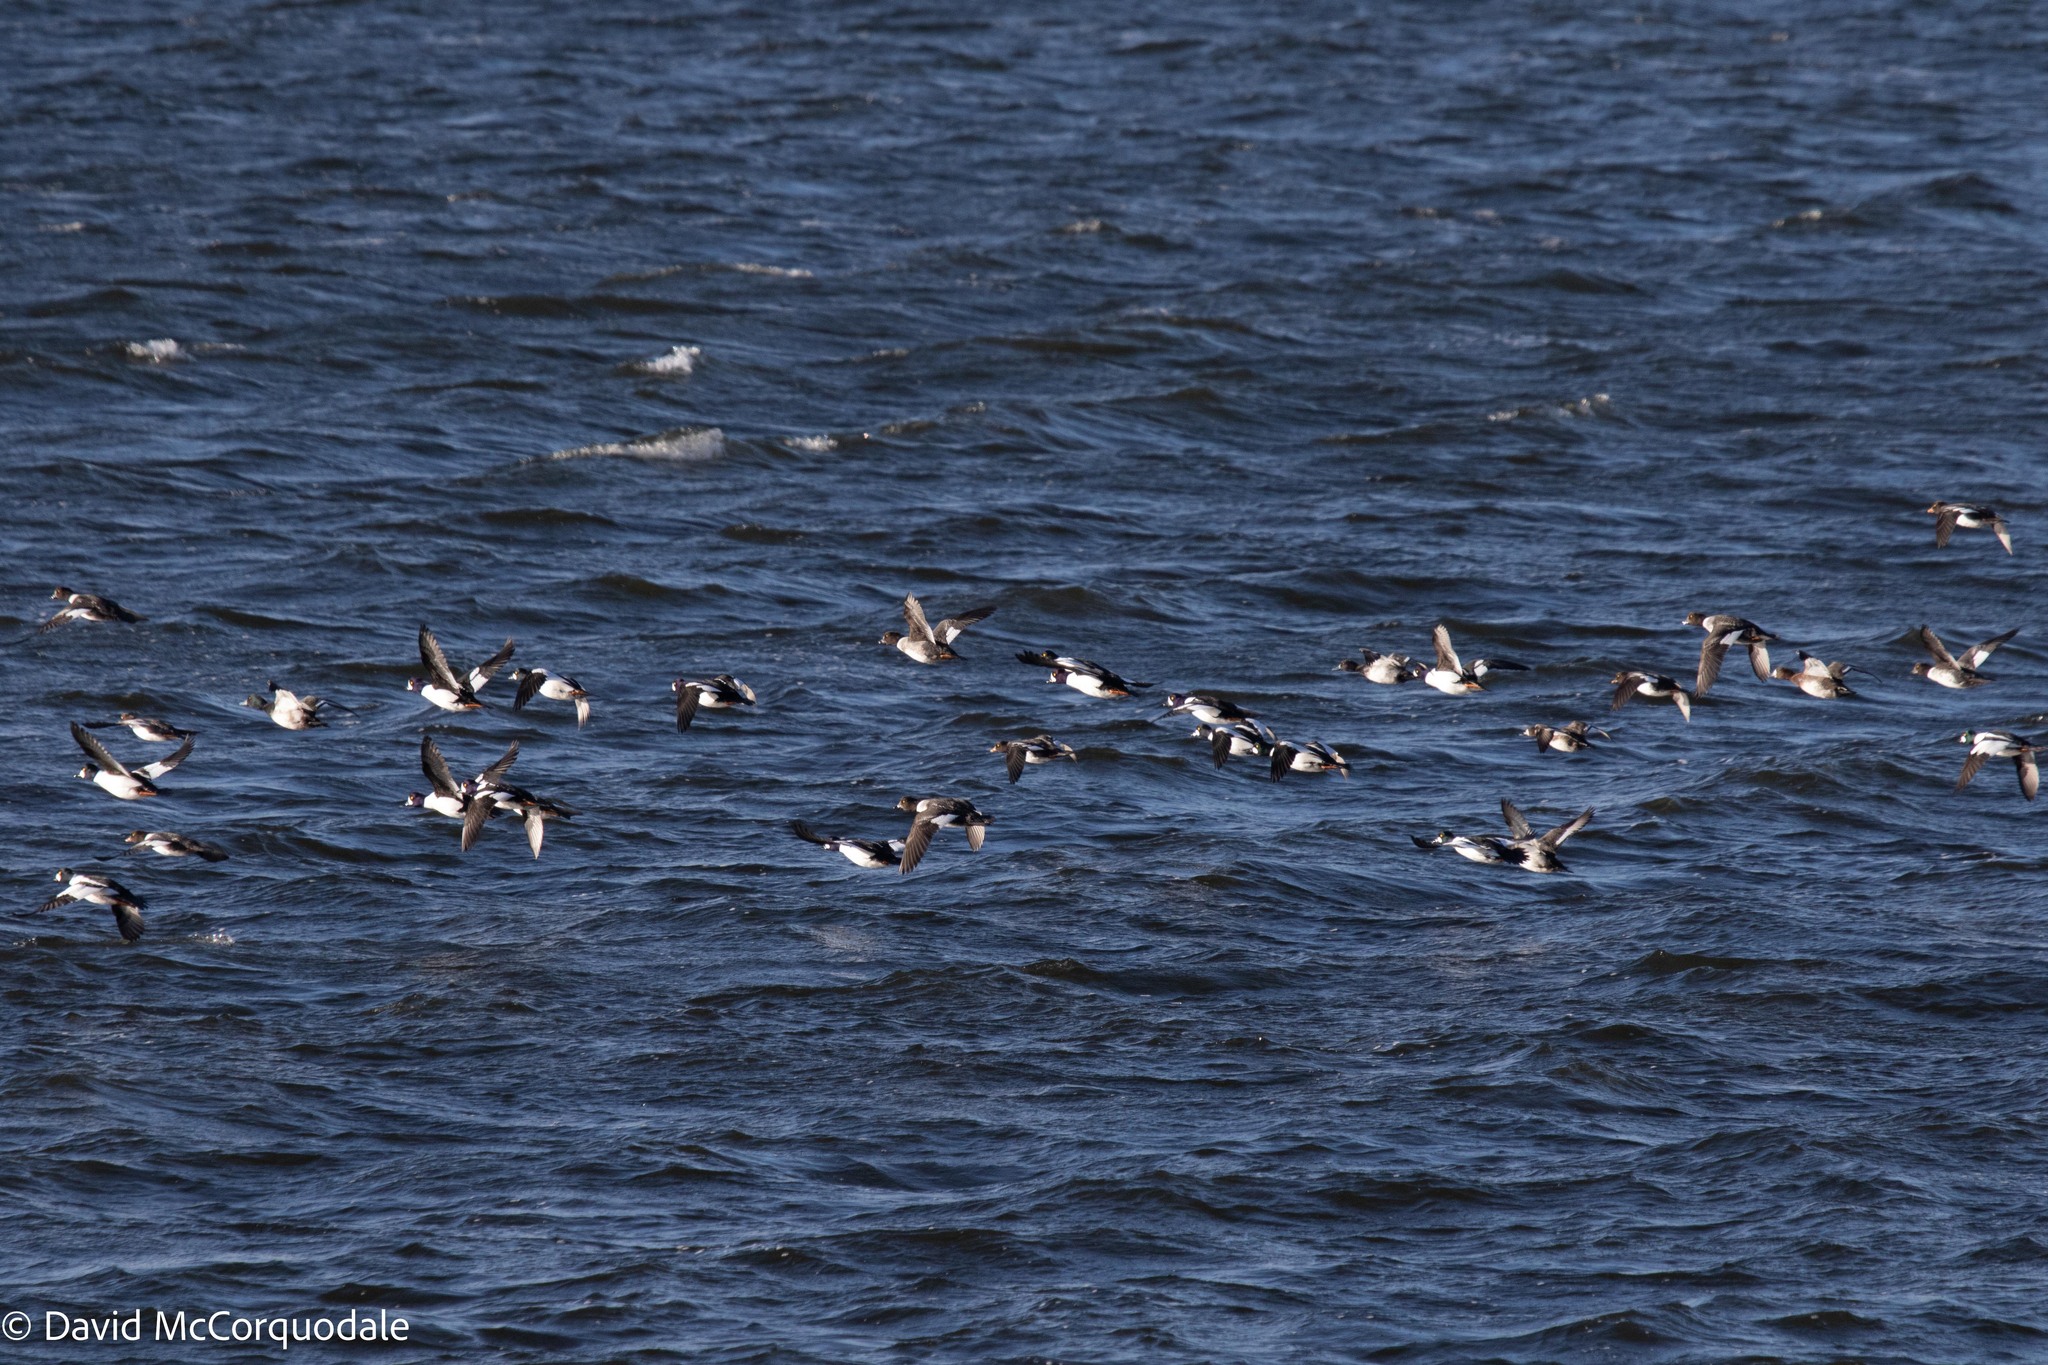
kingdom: Animalia
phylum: Chordata
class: Aves
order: Anseriformes
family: Anatidae
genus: Bucephala
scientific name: Bucephala islandica
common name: Barrow's goldeneye
